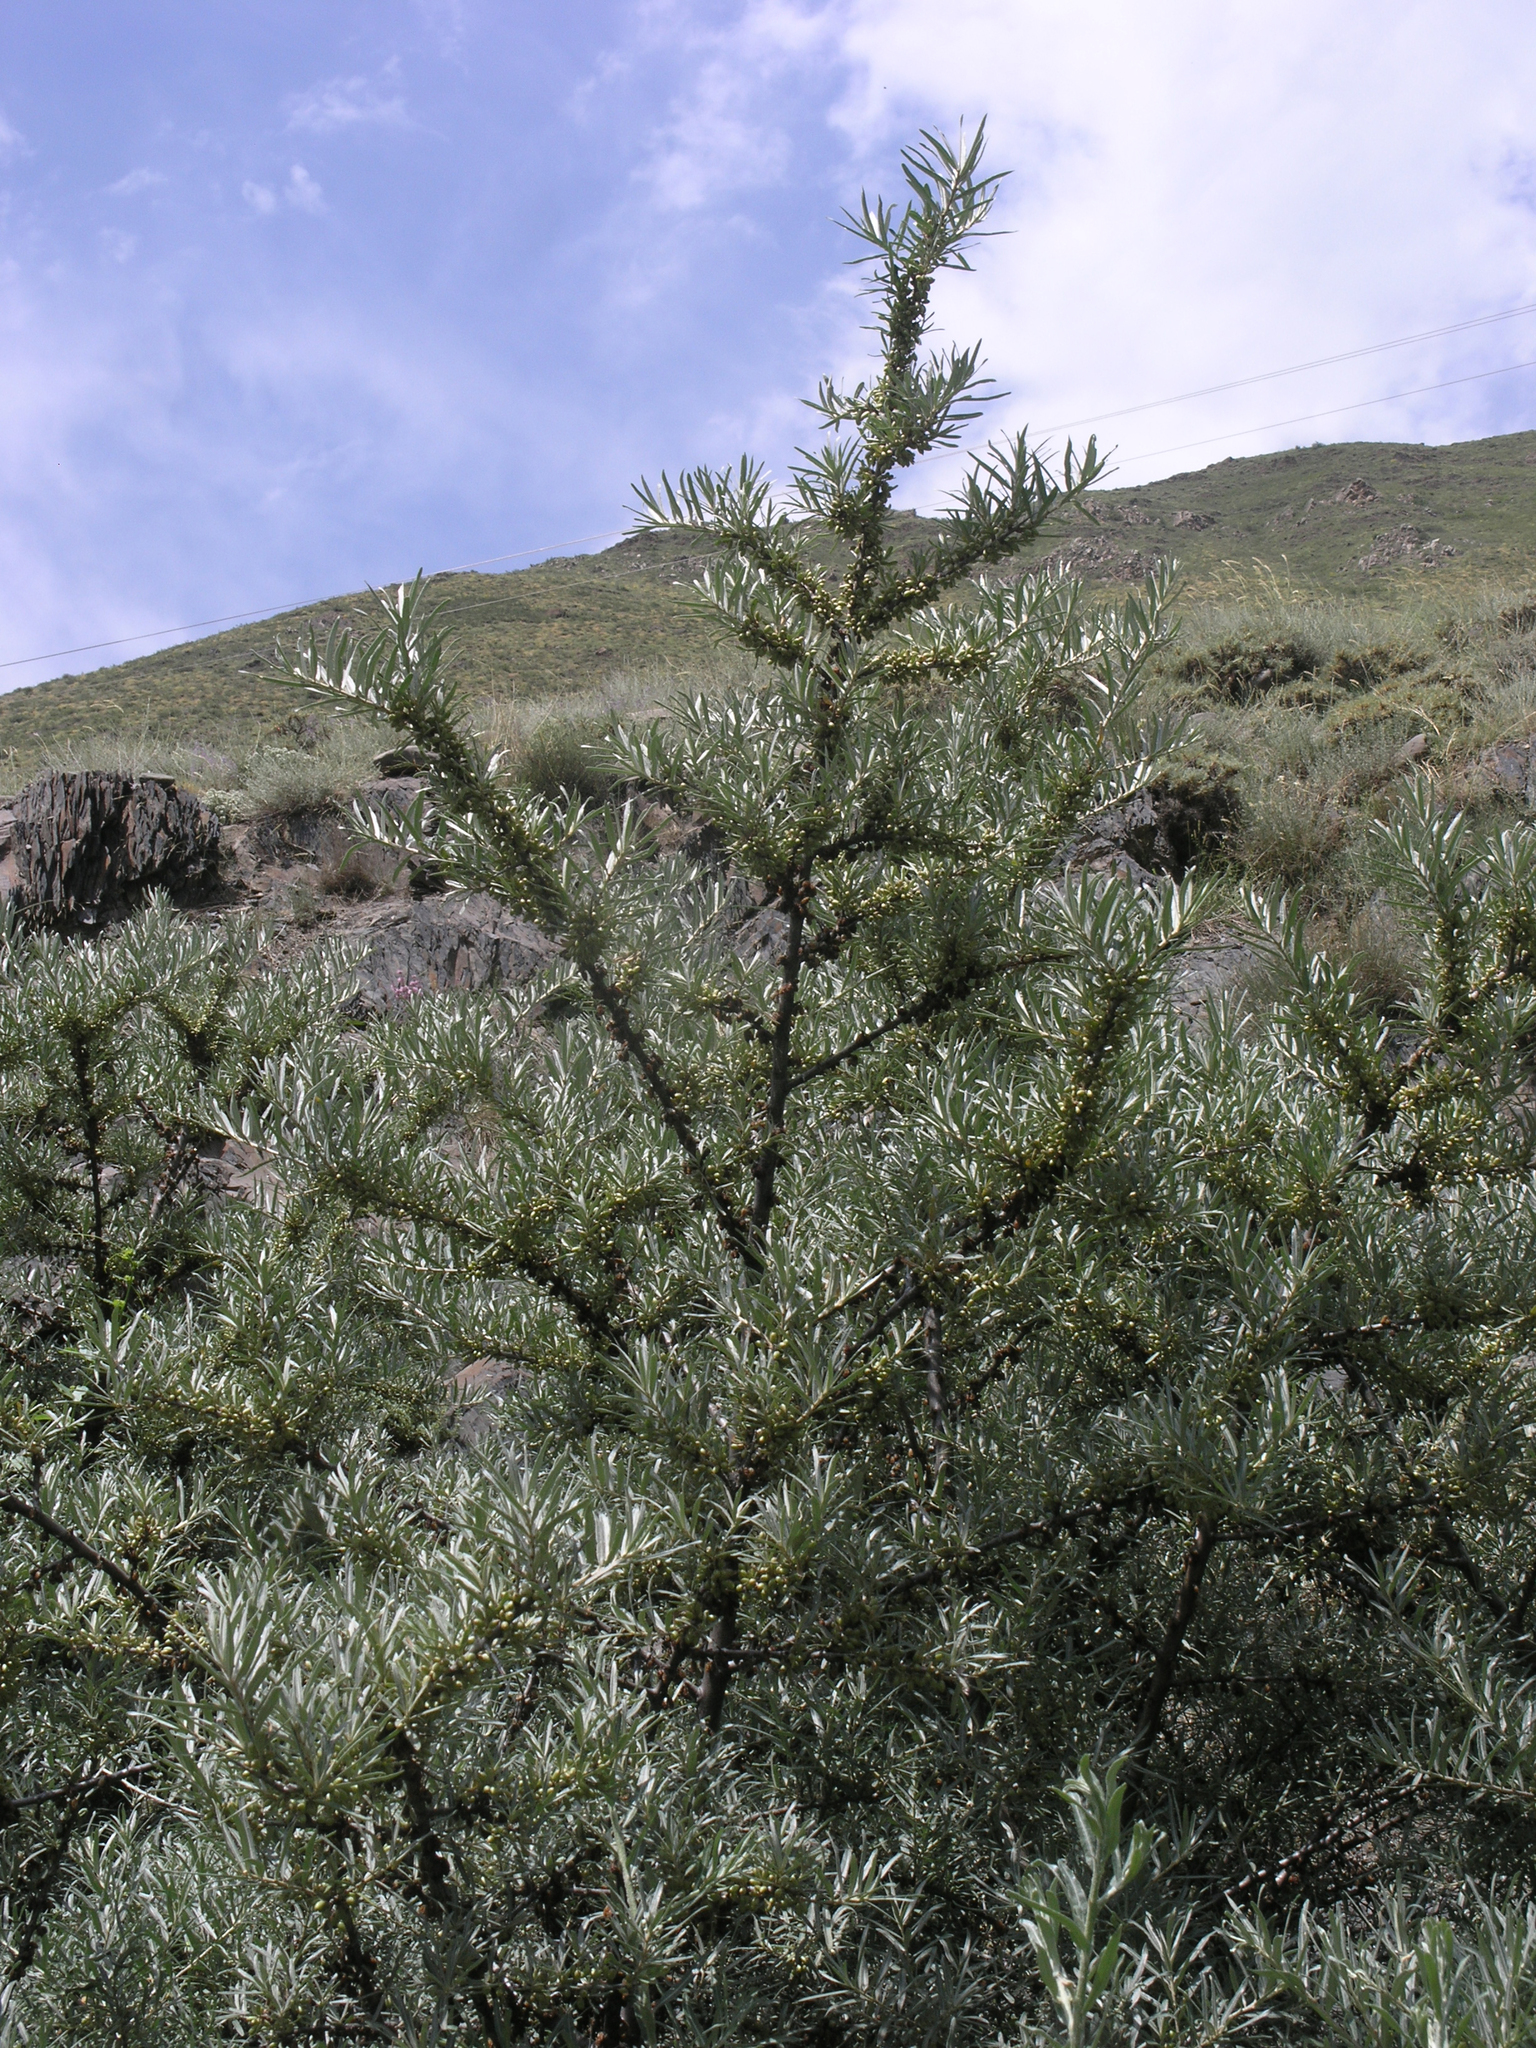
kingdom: Plantae
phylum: Tracheophyta
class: Magnoliopsida
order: Rosales
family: Elaeagnaceae
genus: Hippophae
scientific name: Hippophae rhamnoides
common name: Sea-buckthorn
